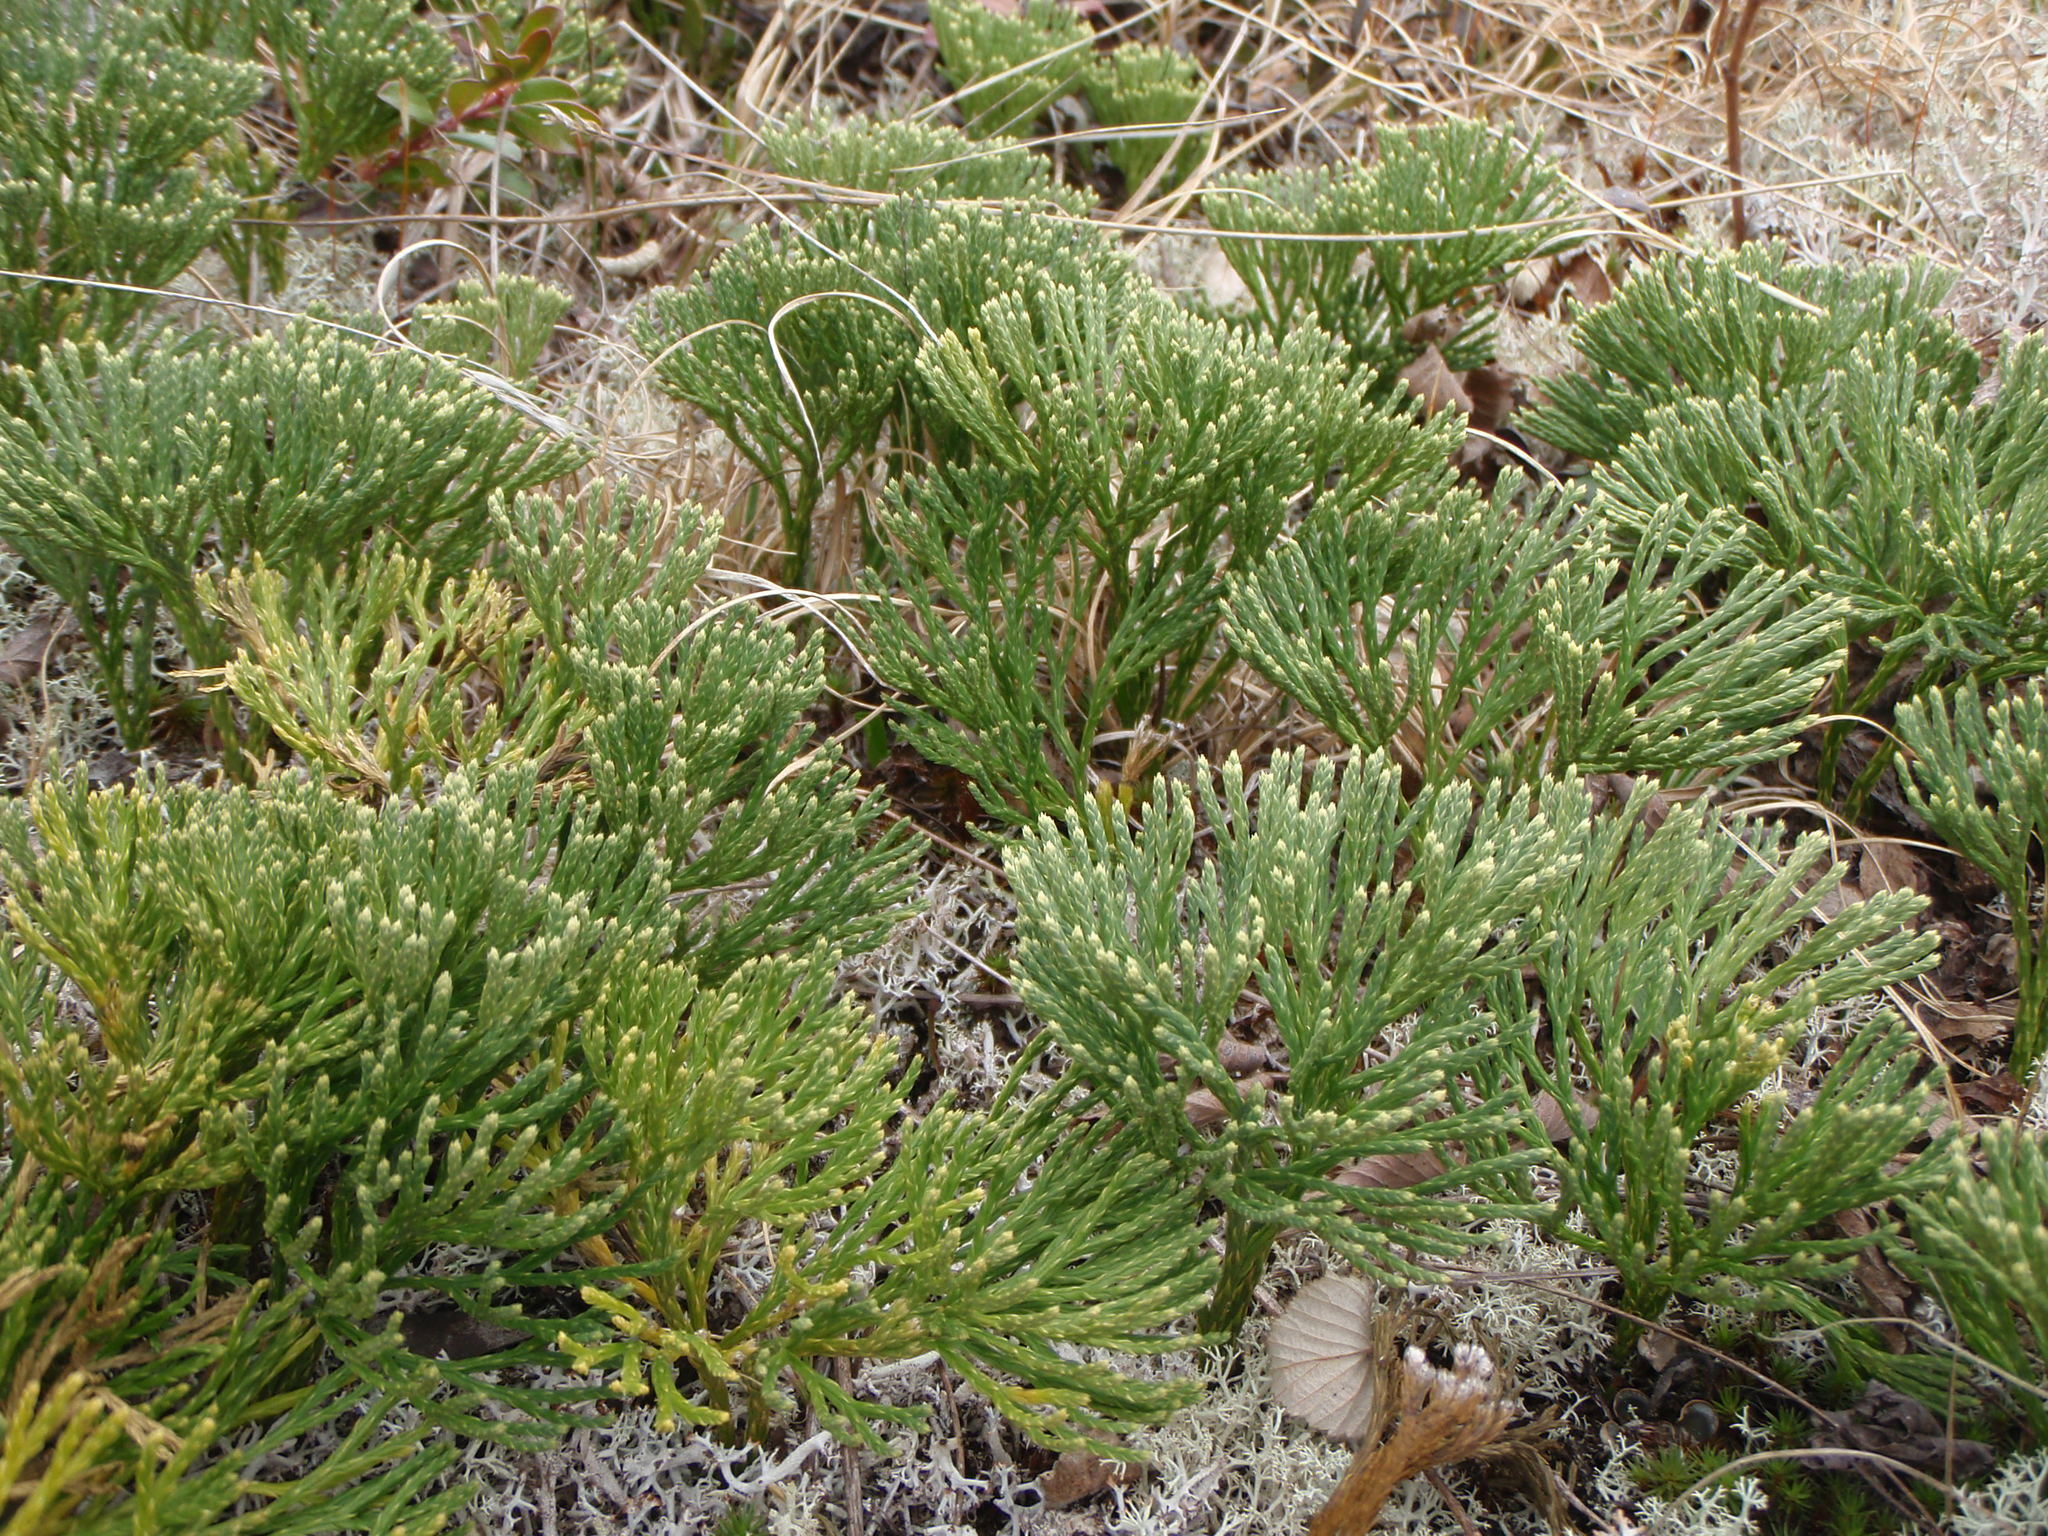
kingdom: Plantae
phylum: Tracheophyta
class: Lycopodiopsida
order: Lycopodiales
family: Lycopodiaceae
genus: Diphasiastrum
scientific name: Diphasiastrum tristachyum
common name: Blue ground-cedar
